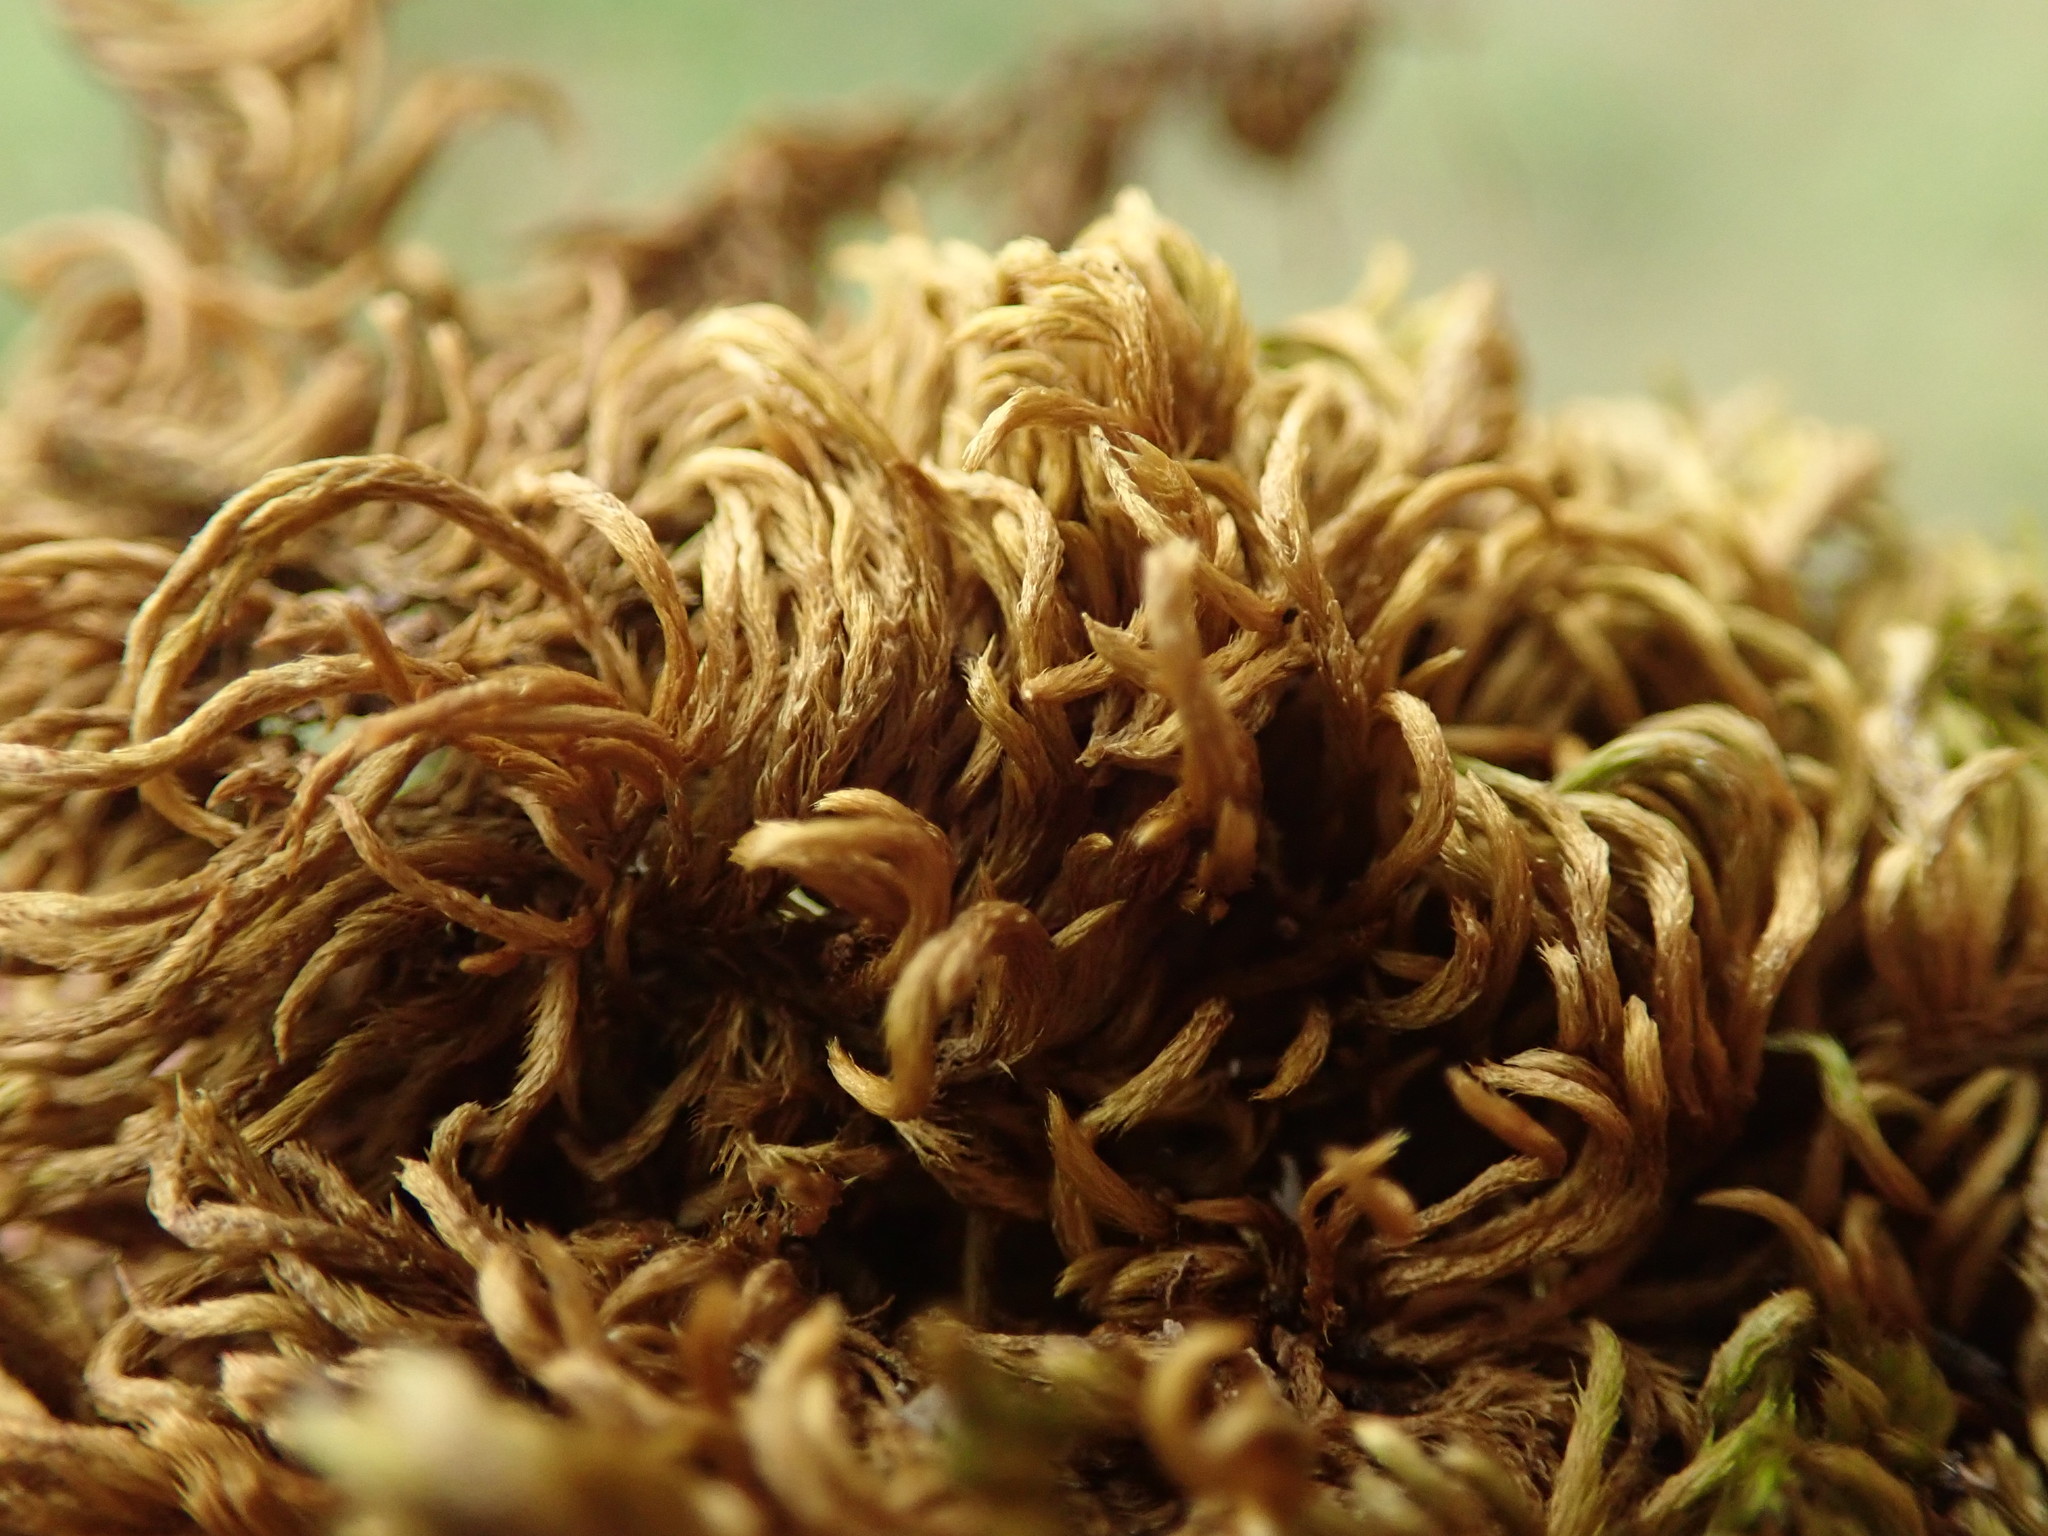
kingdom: Plantae
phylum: Bryophyta
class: Bryopsida
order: Hypnales
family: Brachytheciaceae
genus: Homalothecium
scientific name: Homalothecium nuttallii
